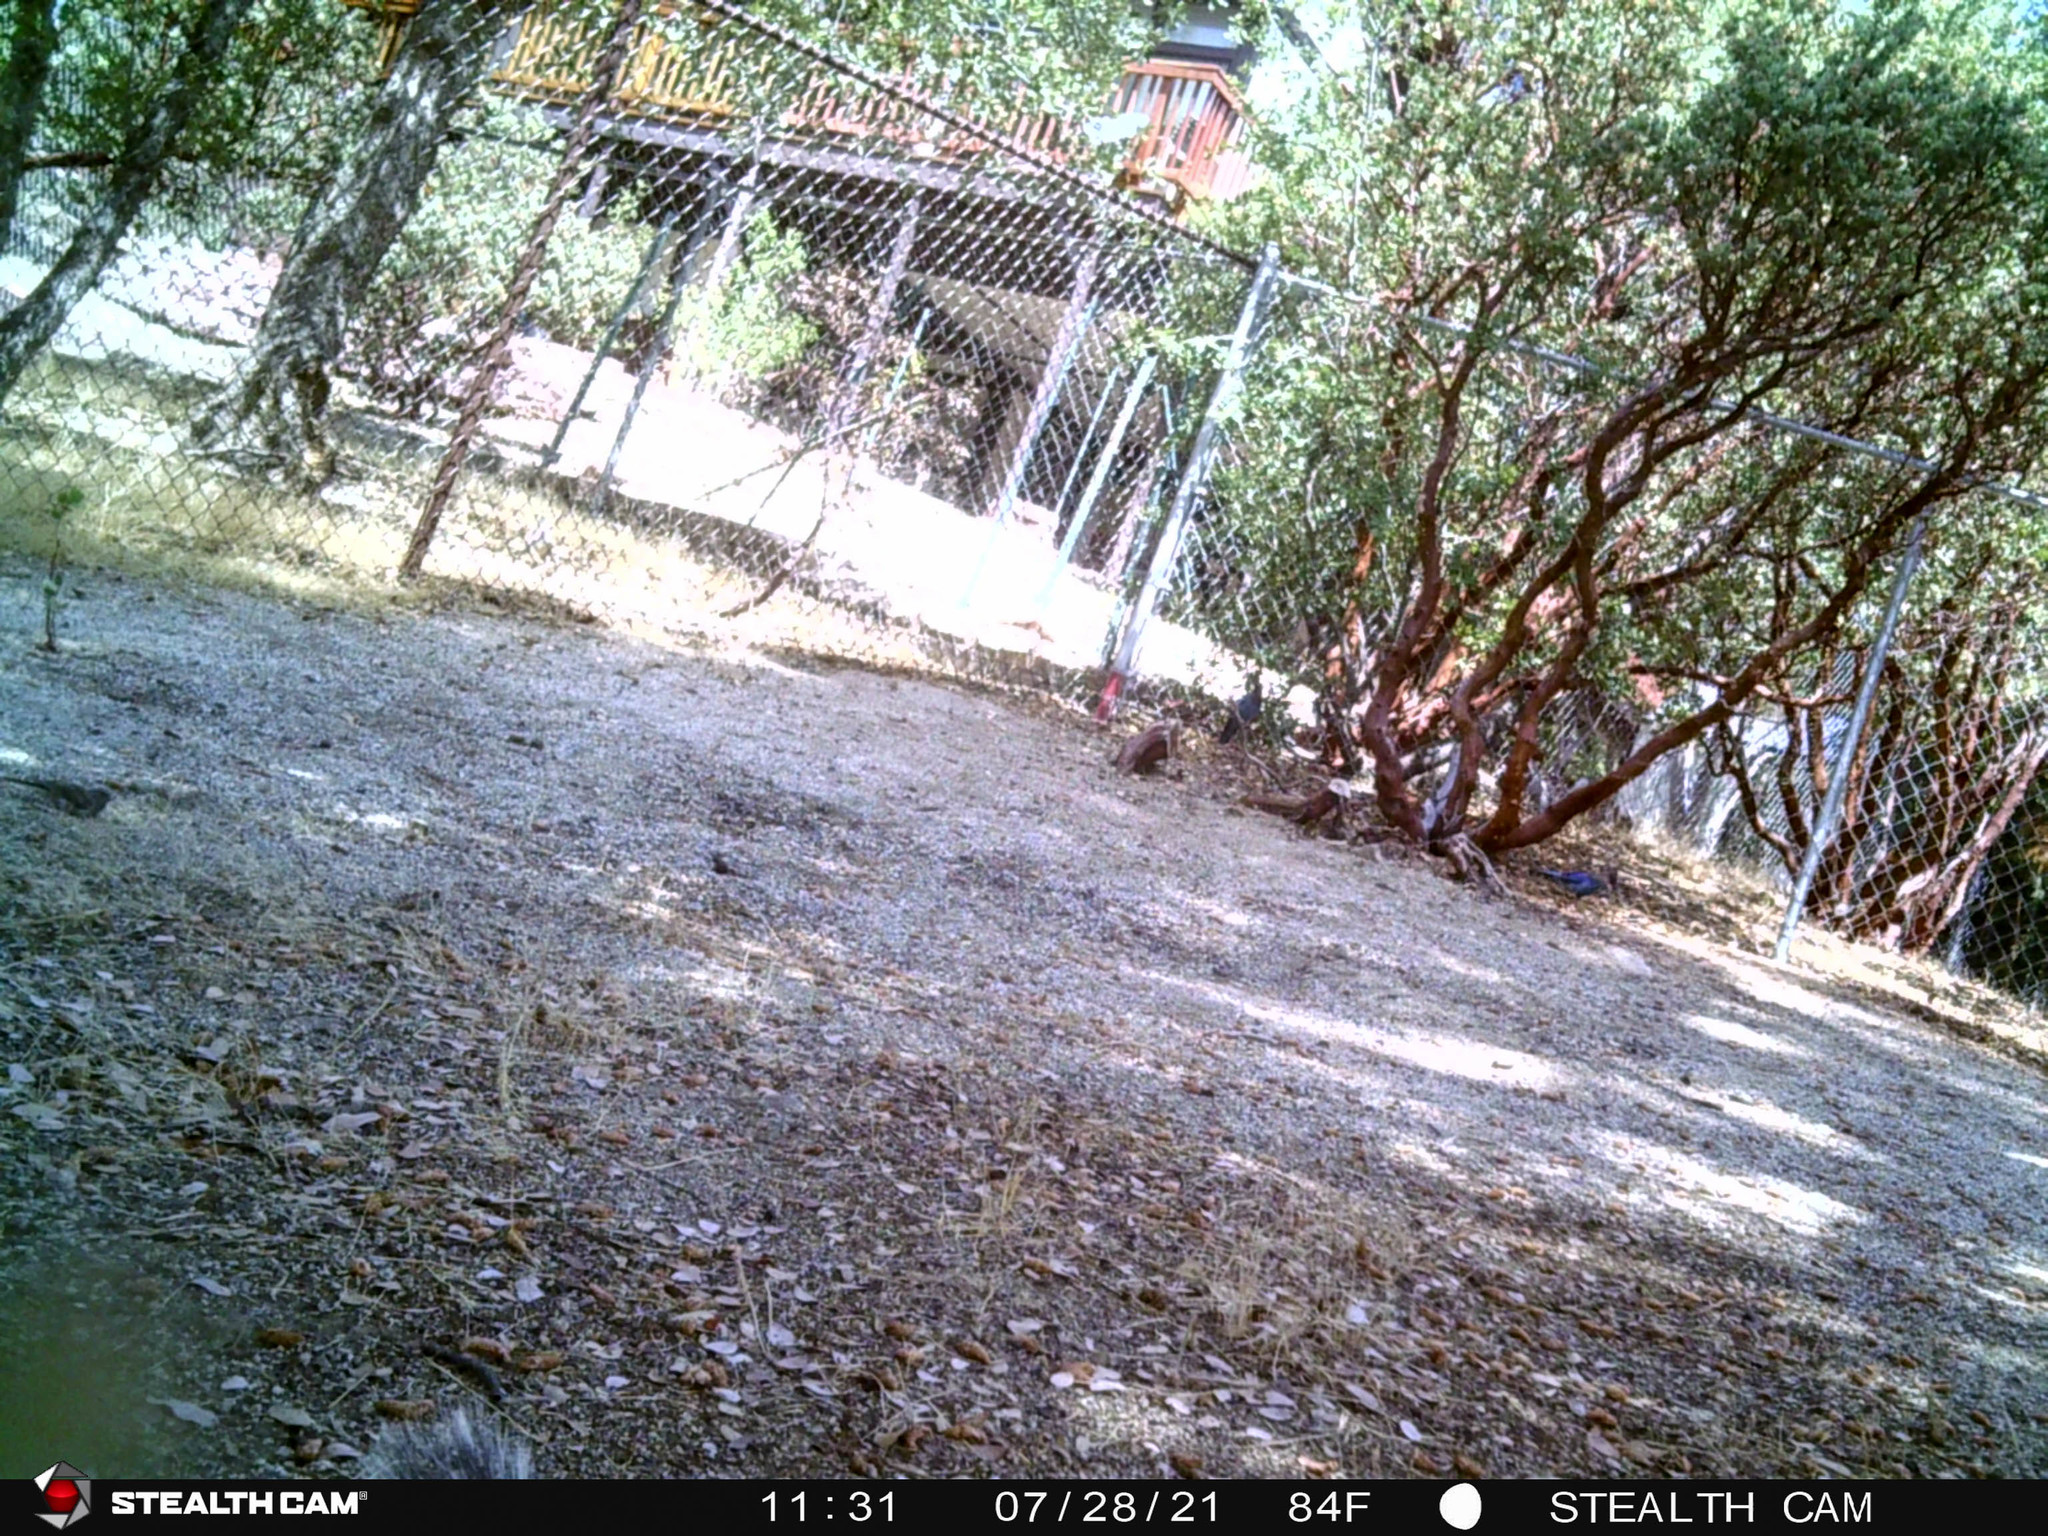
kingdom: Animalia
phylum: Chordata
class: Aves
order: Passeriformes
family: Corvidae
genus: Cyanocitta
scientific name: Cyanocitta stelleri
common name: Steller's jay
